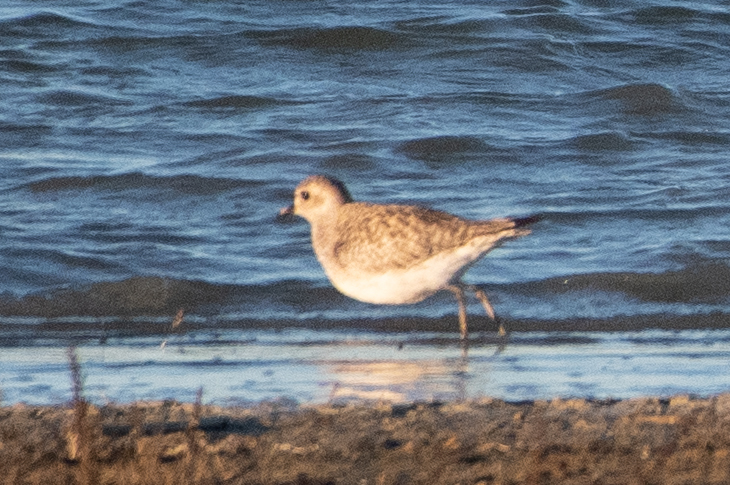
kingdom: Animalia
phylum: Chordata
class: Aves
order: Charadriiformes
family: Charadriidae
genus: Pluvialis
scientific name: Pluvialis squatarola
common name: Grey plover
